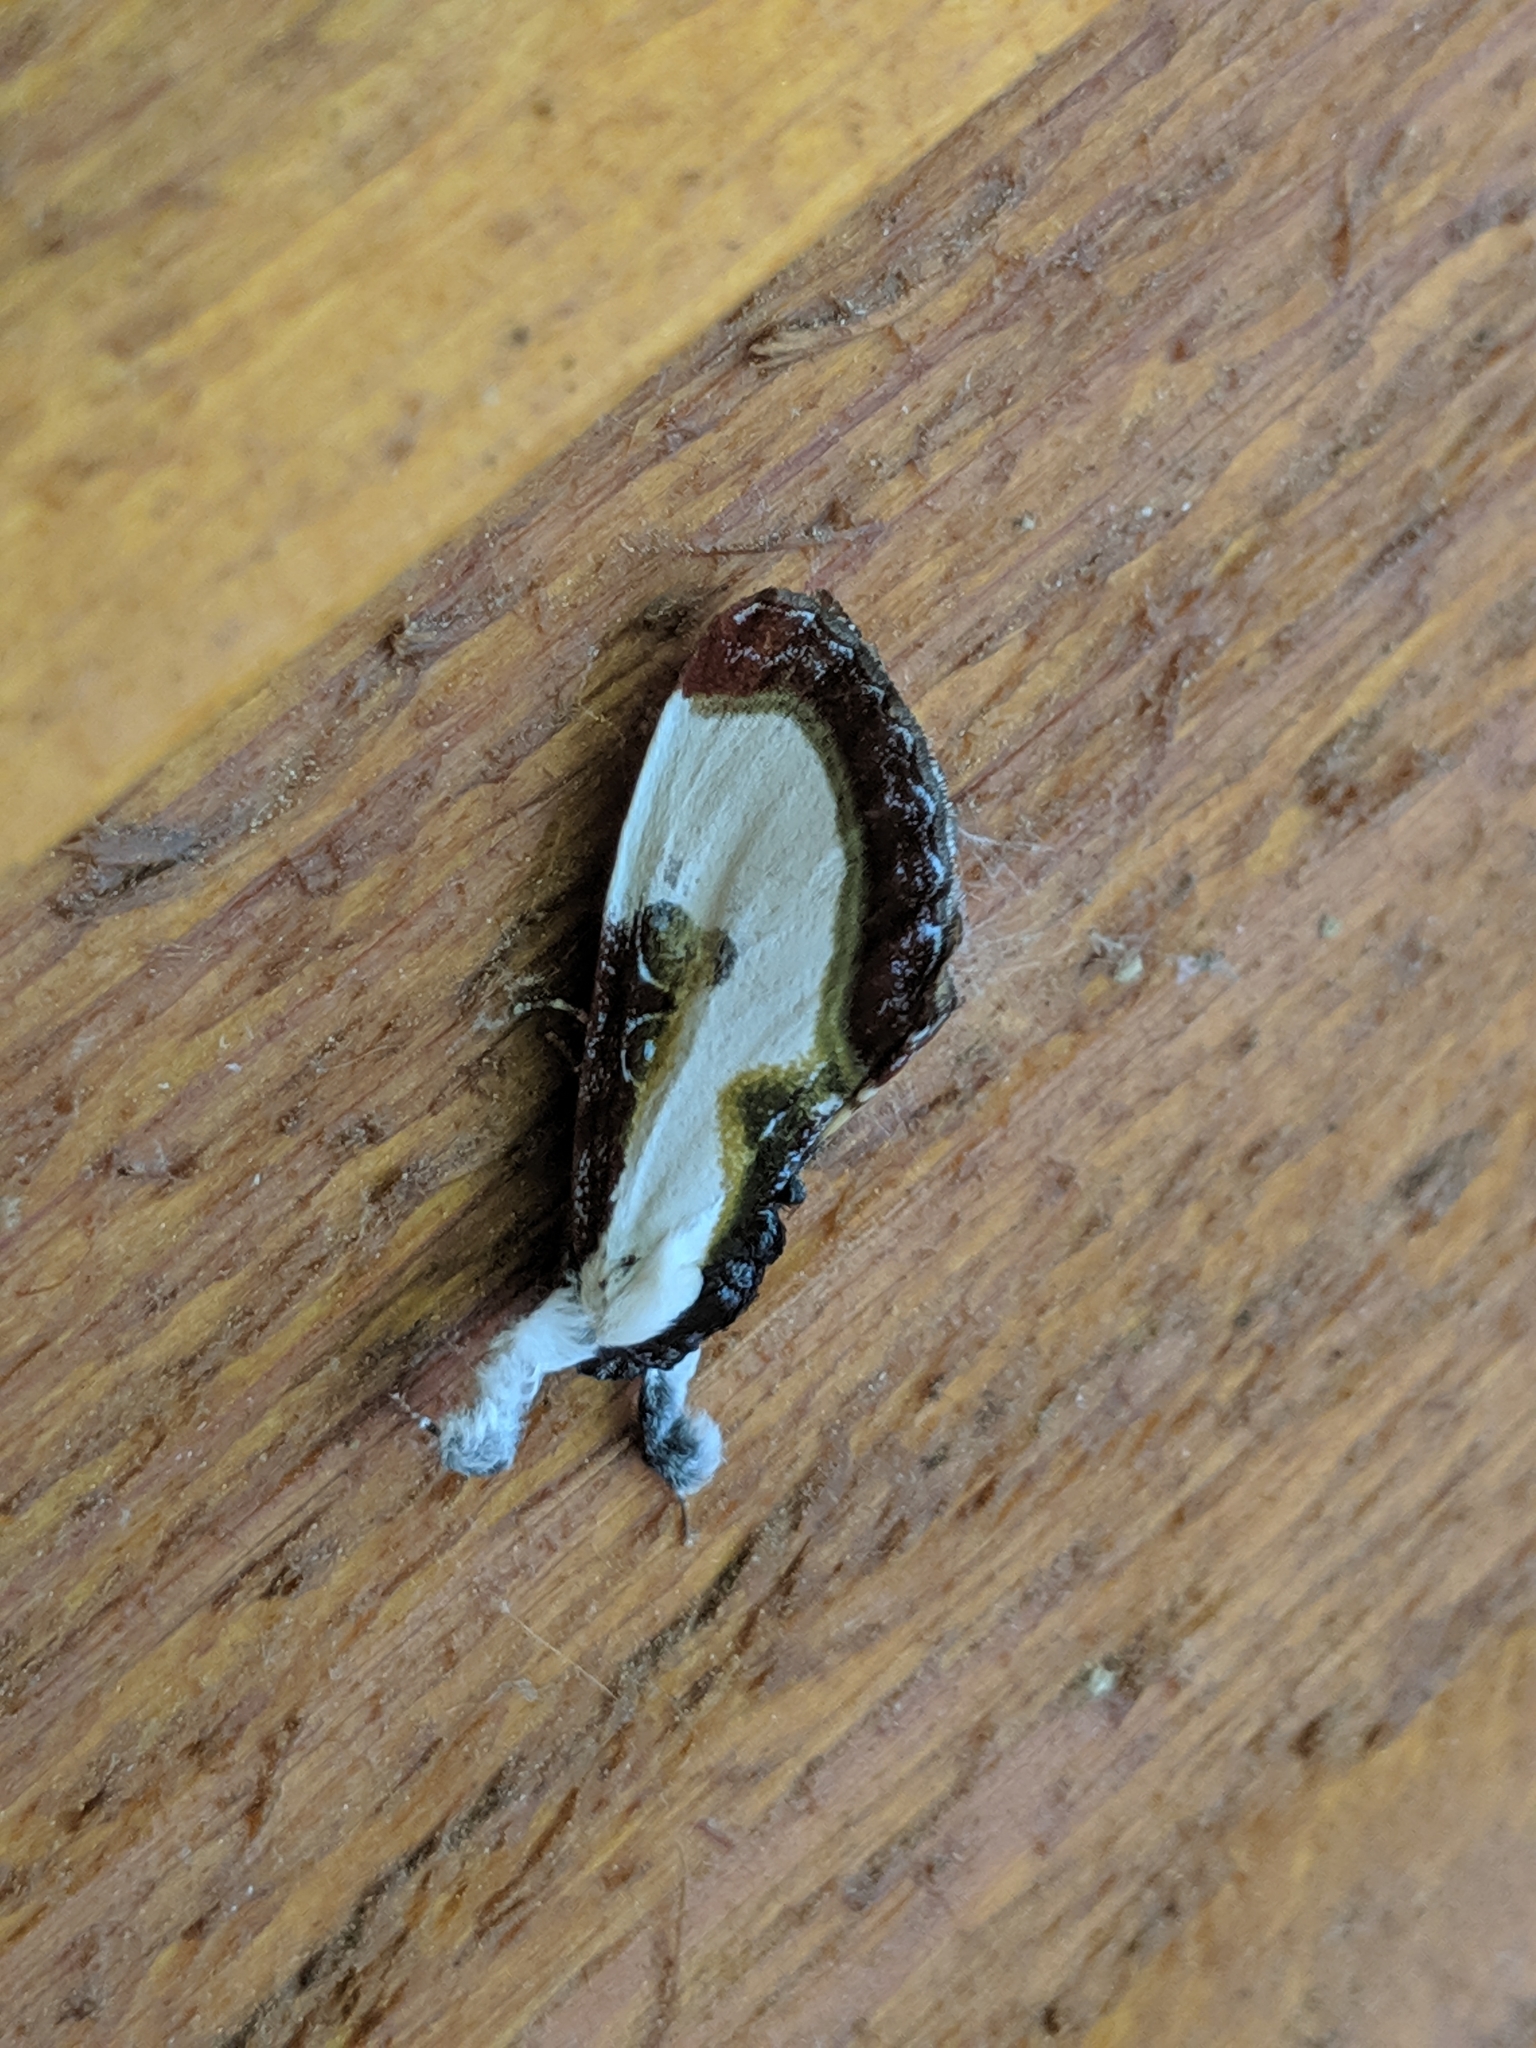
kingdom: Animalia
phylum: Arthropoda
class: Insecta
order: Lepidoptera
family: Noctuidae
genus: Eudryas
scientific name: Eudryas grata
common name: Beautiful wood-nymph
